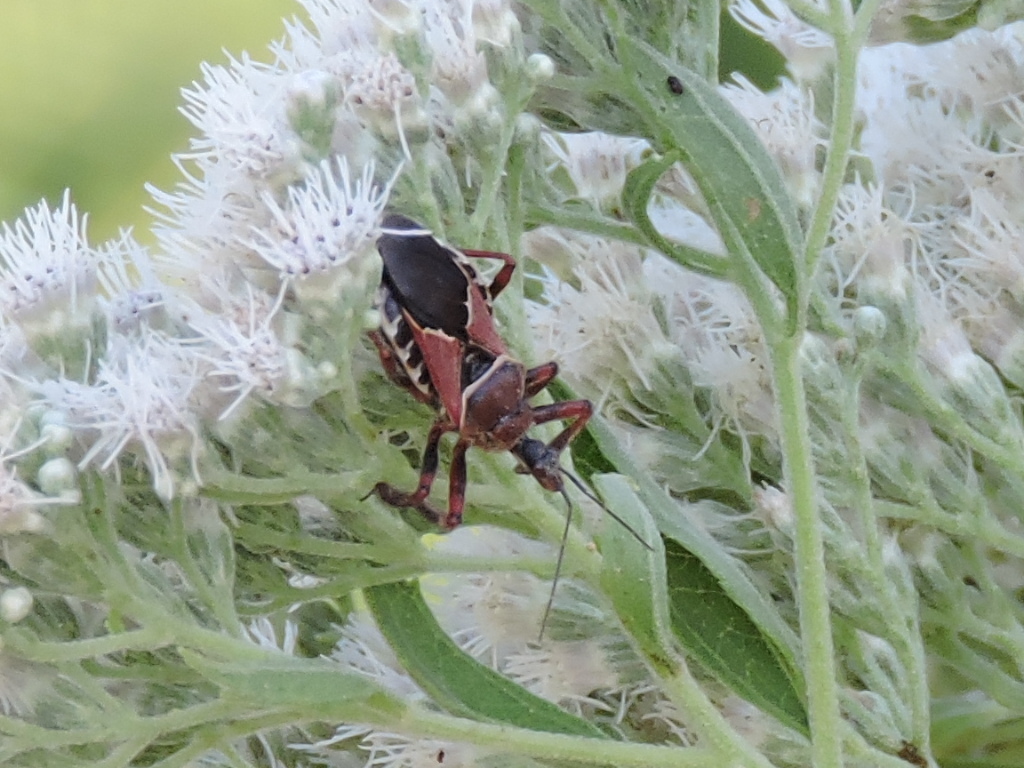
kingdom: Animalia
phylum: Arthropoda
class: Insecta
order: Hemiptera
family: Reduviidae
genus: Apiomerus
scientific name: Apiomerus spissipes
